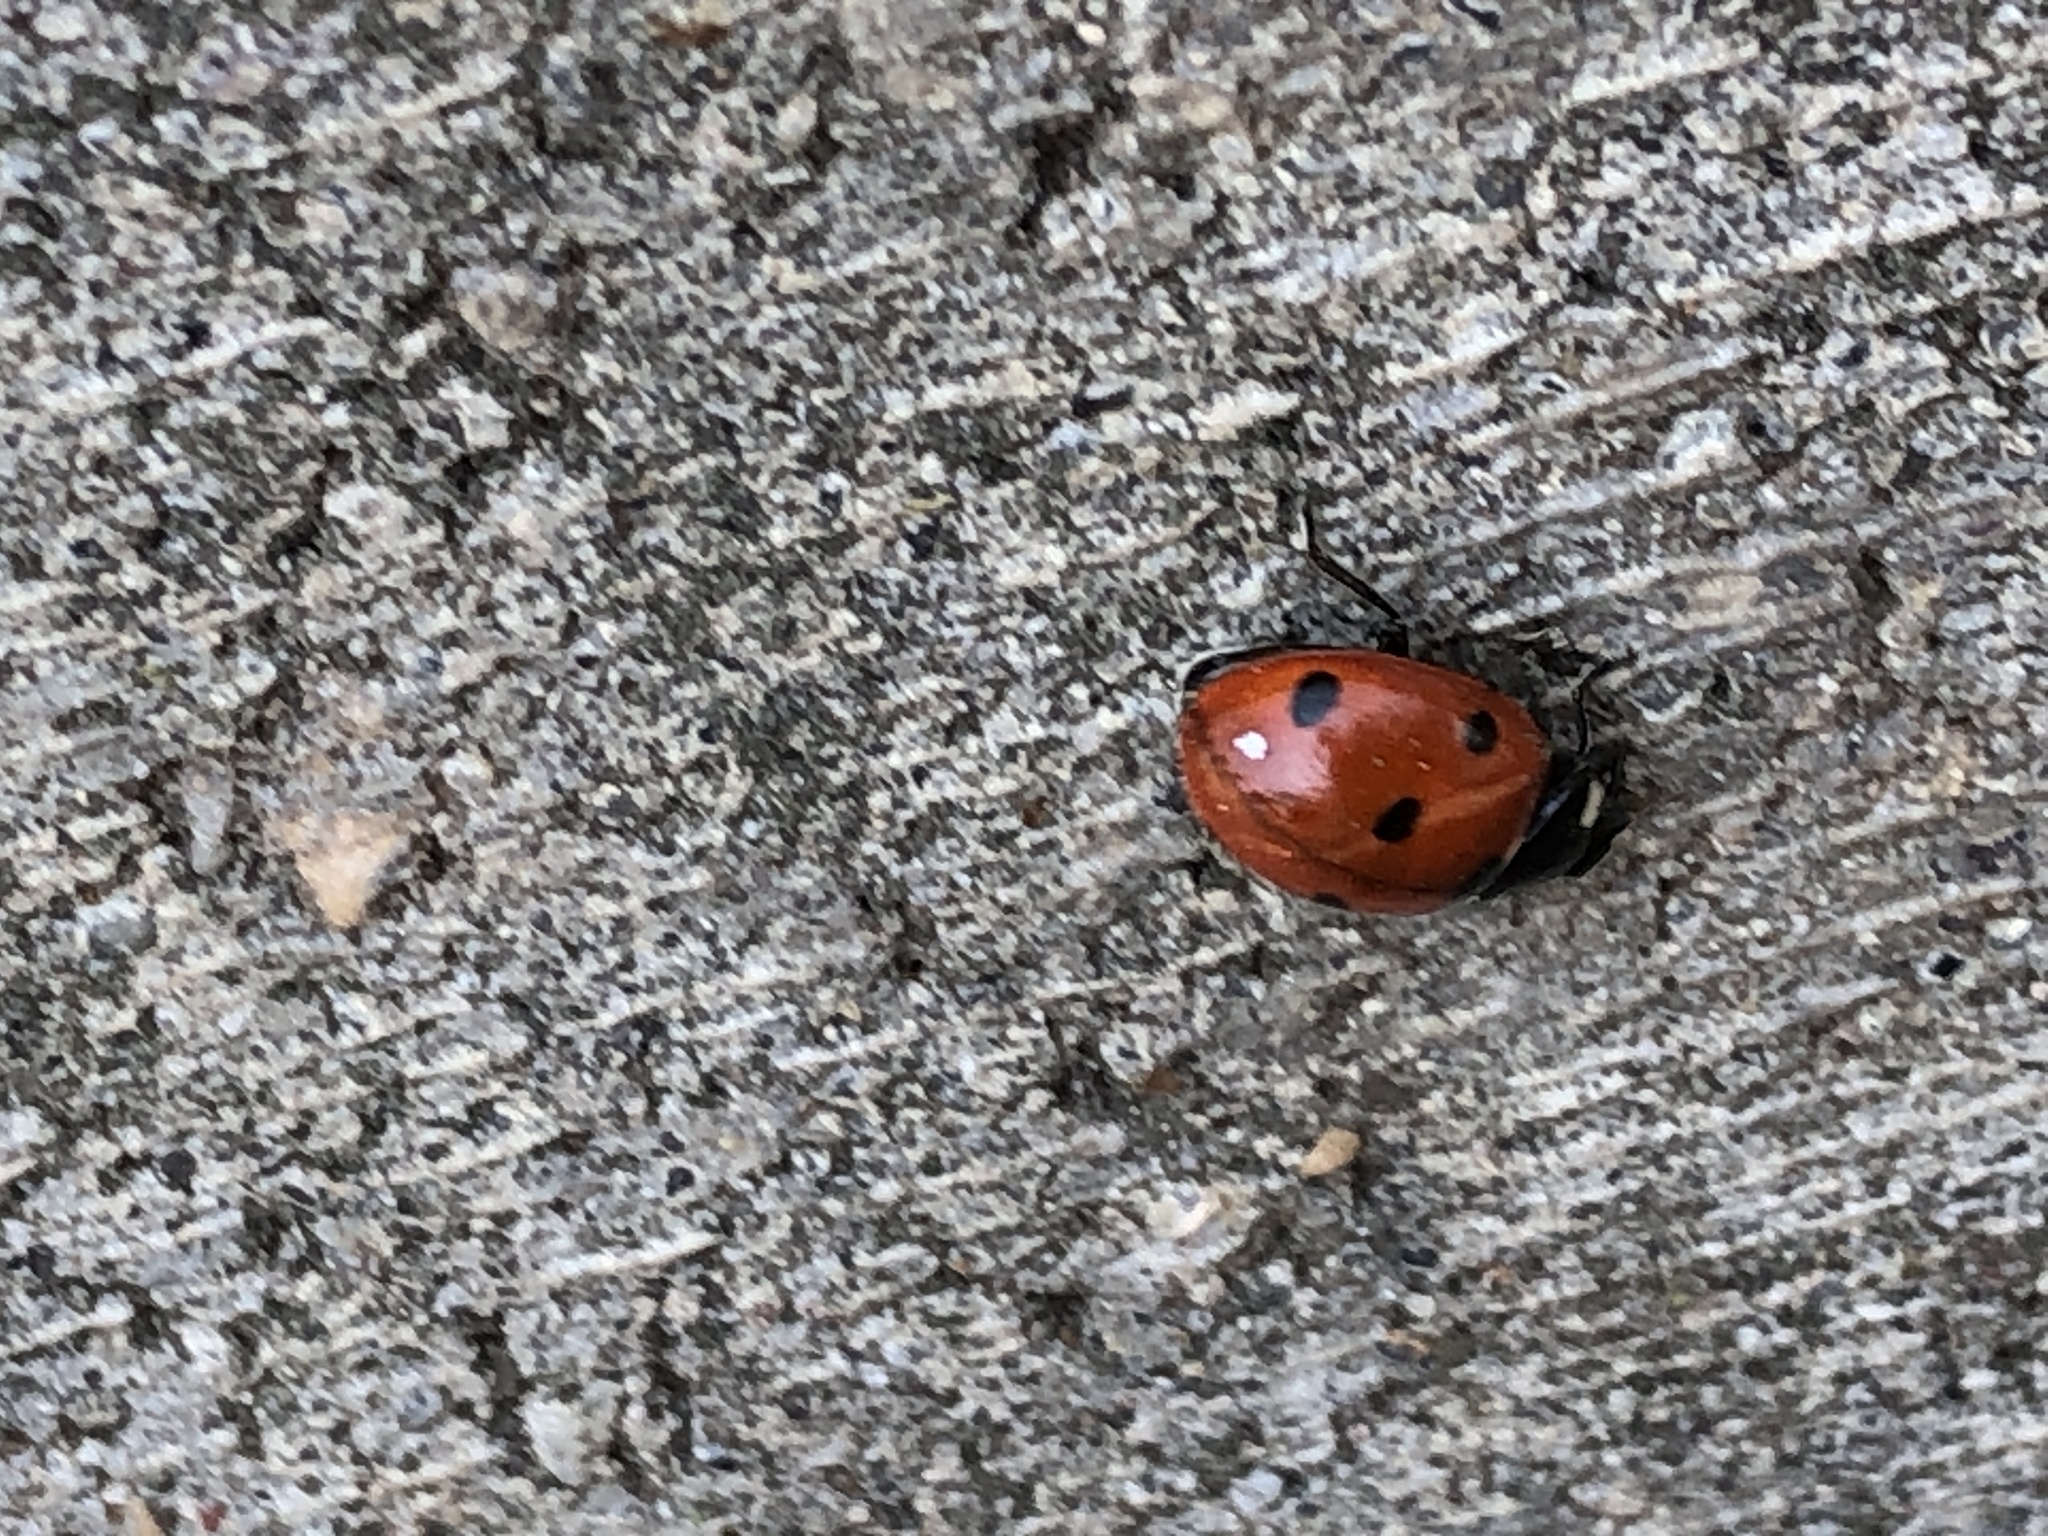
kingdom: Animalia
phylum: Arthropoda
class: Insecta
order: Coleoptera
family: Coccinellidae
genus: Coccinella
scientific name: Coccinella septempunctata
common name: Sevenspotted lady beetle
